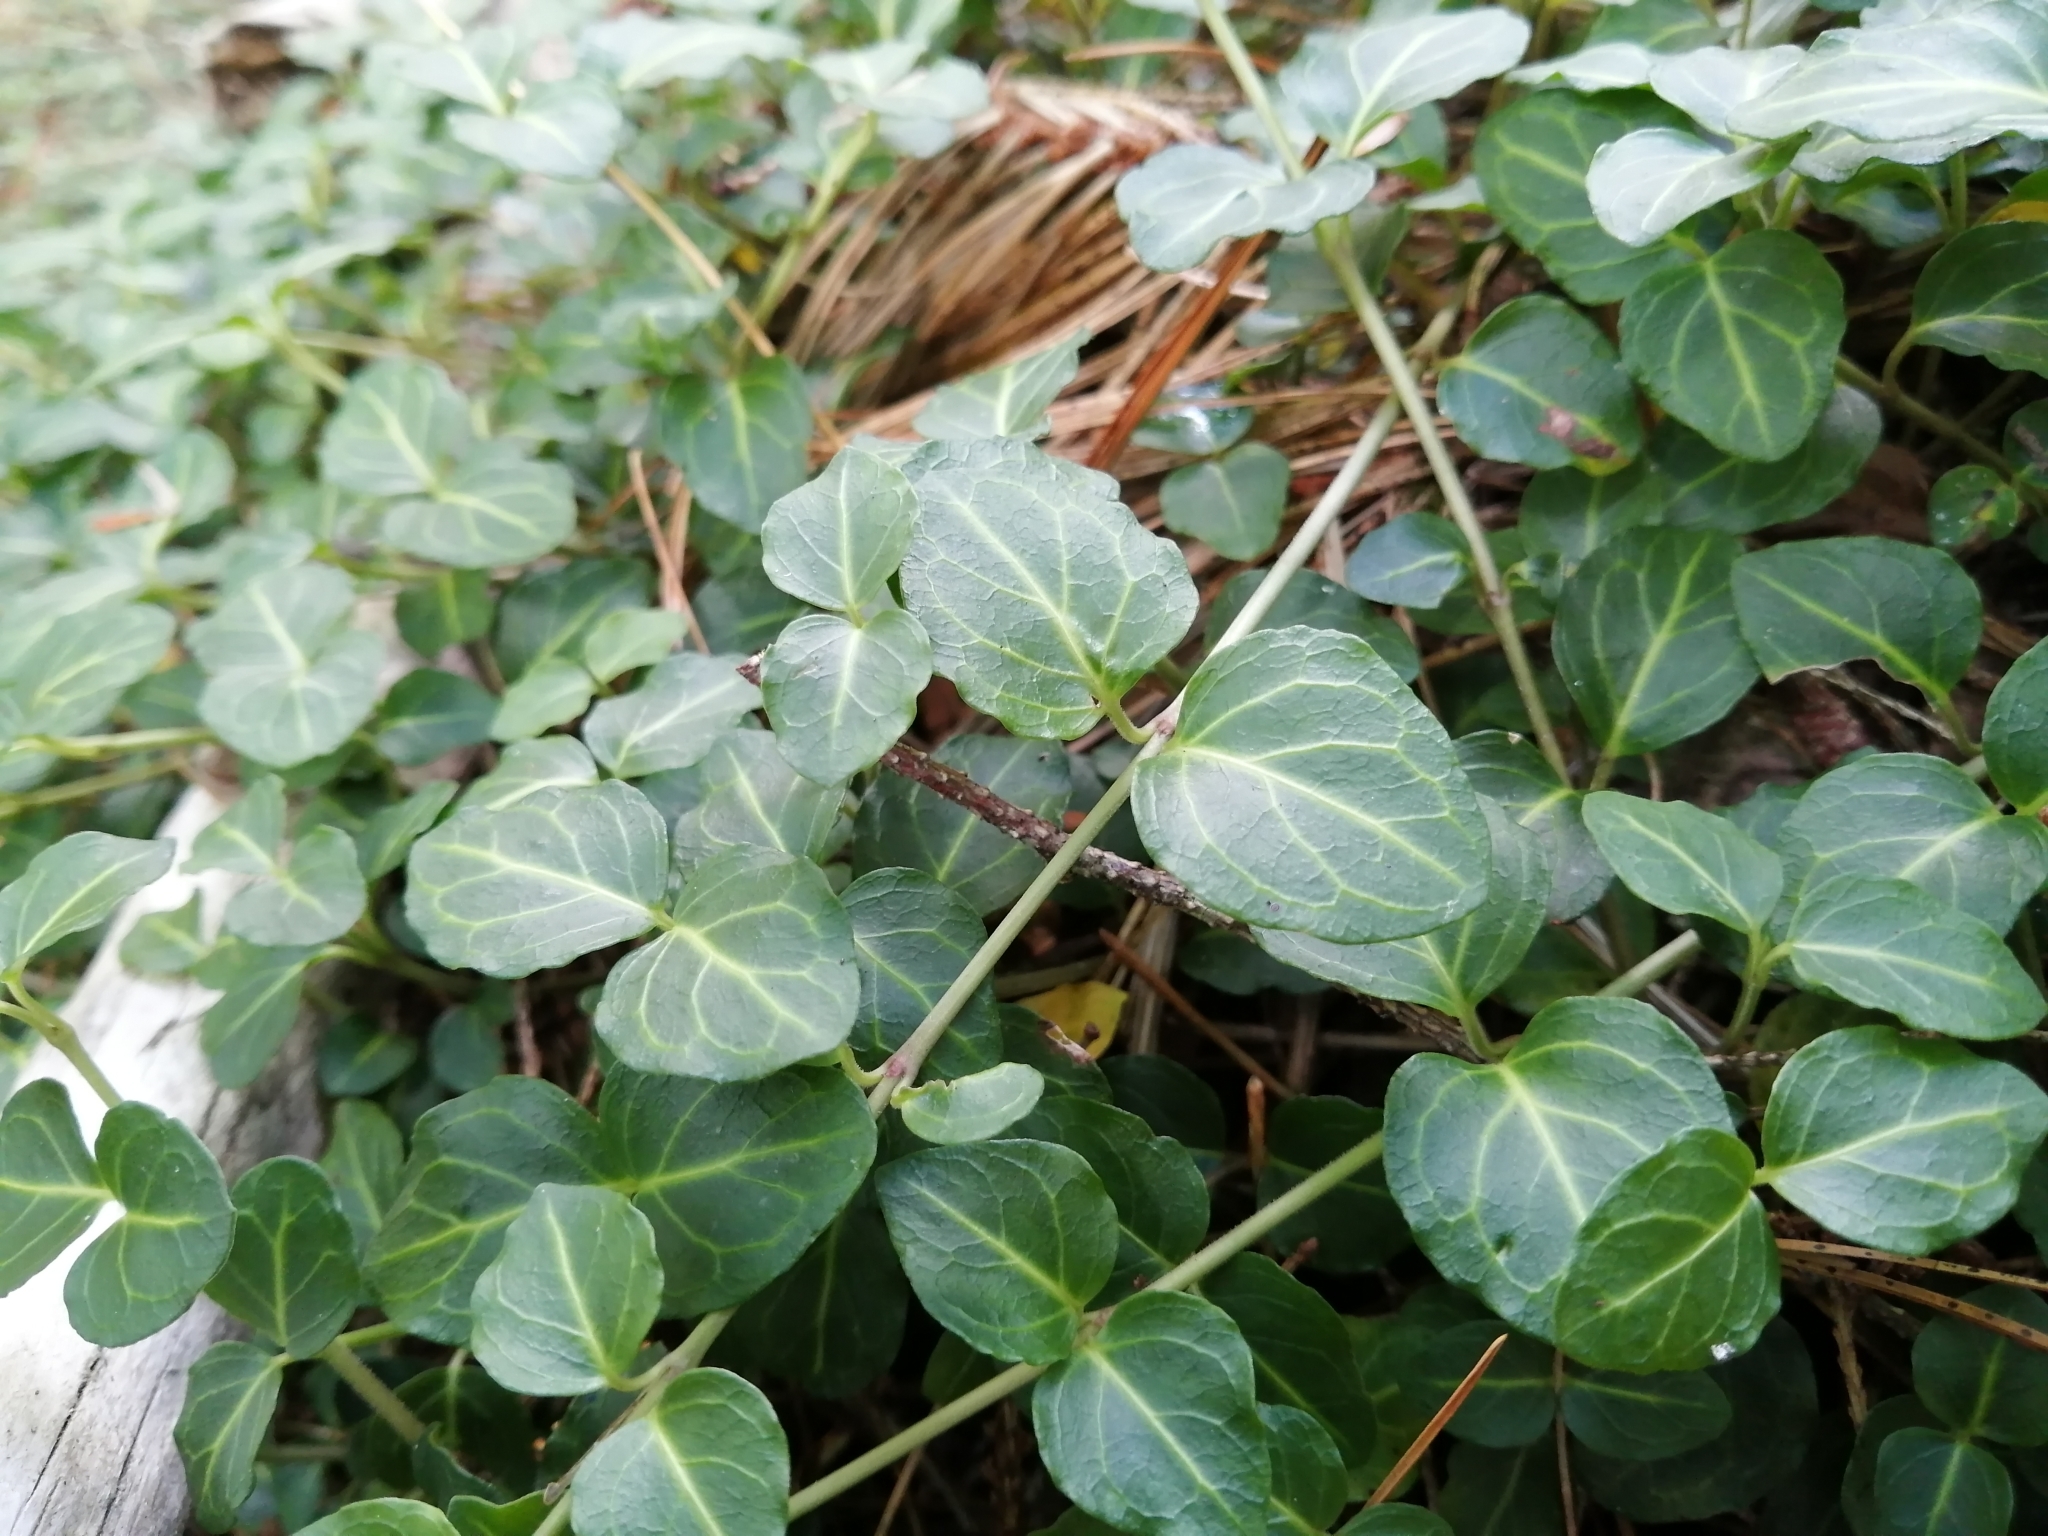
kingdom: Plantae
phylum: Tracheophyta
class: Magnoliopsida
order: Gentianales
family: Rubiaceae
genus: Mitchella
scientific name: Mitchella repens
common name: Partridge-berry
